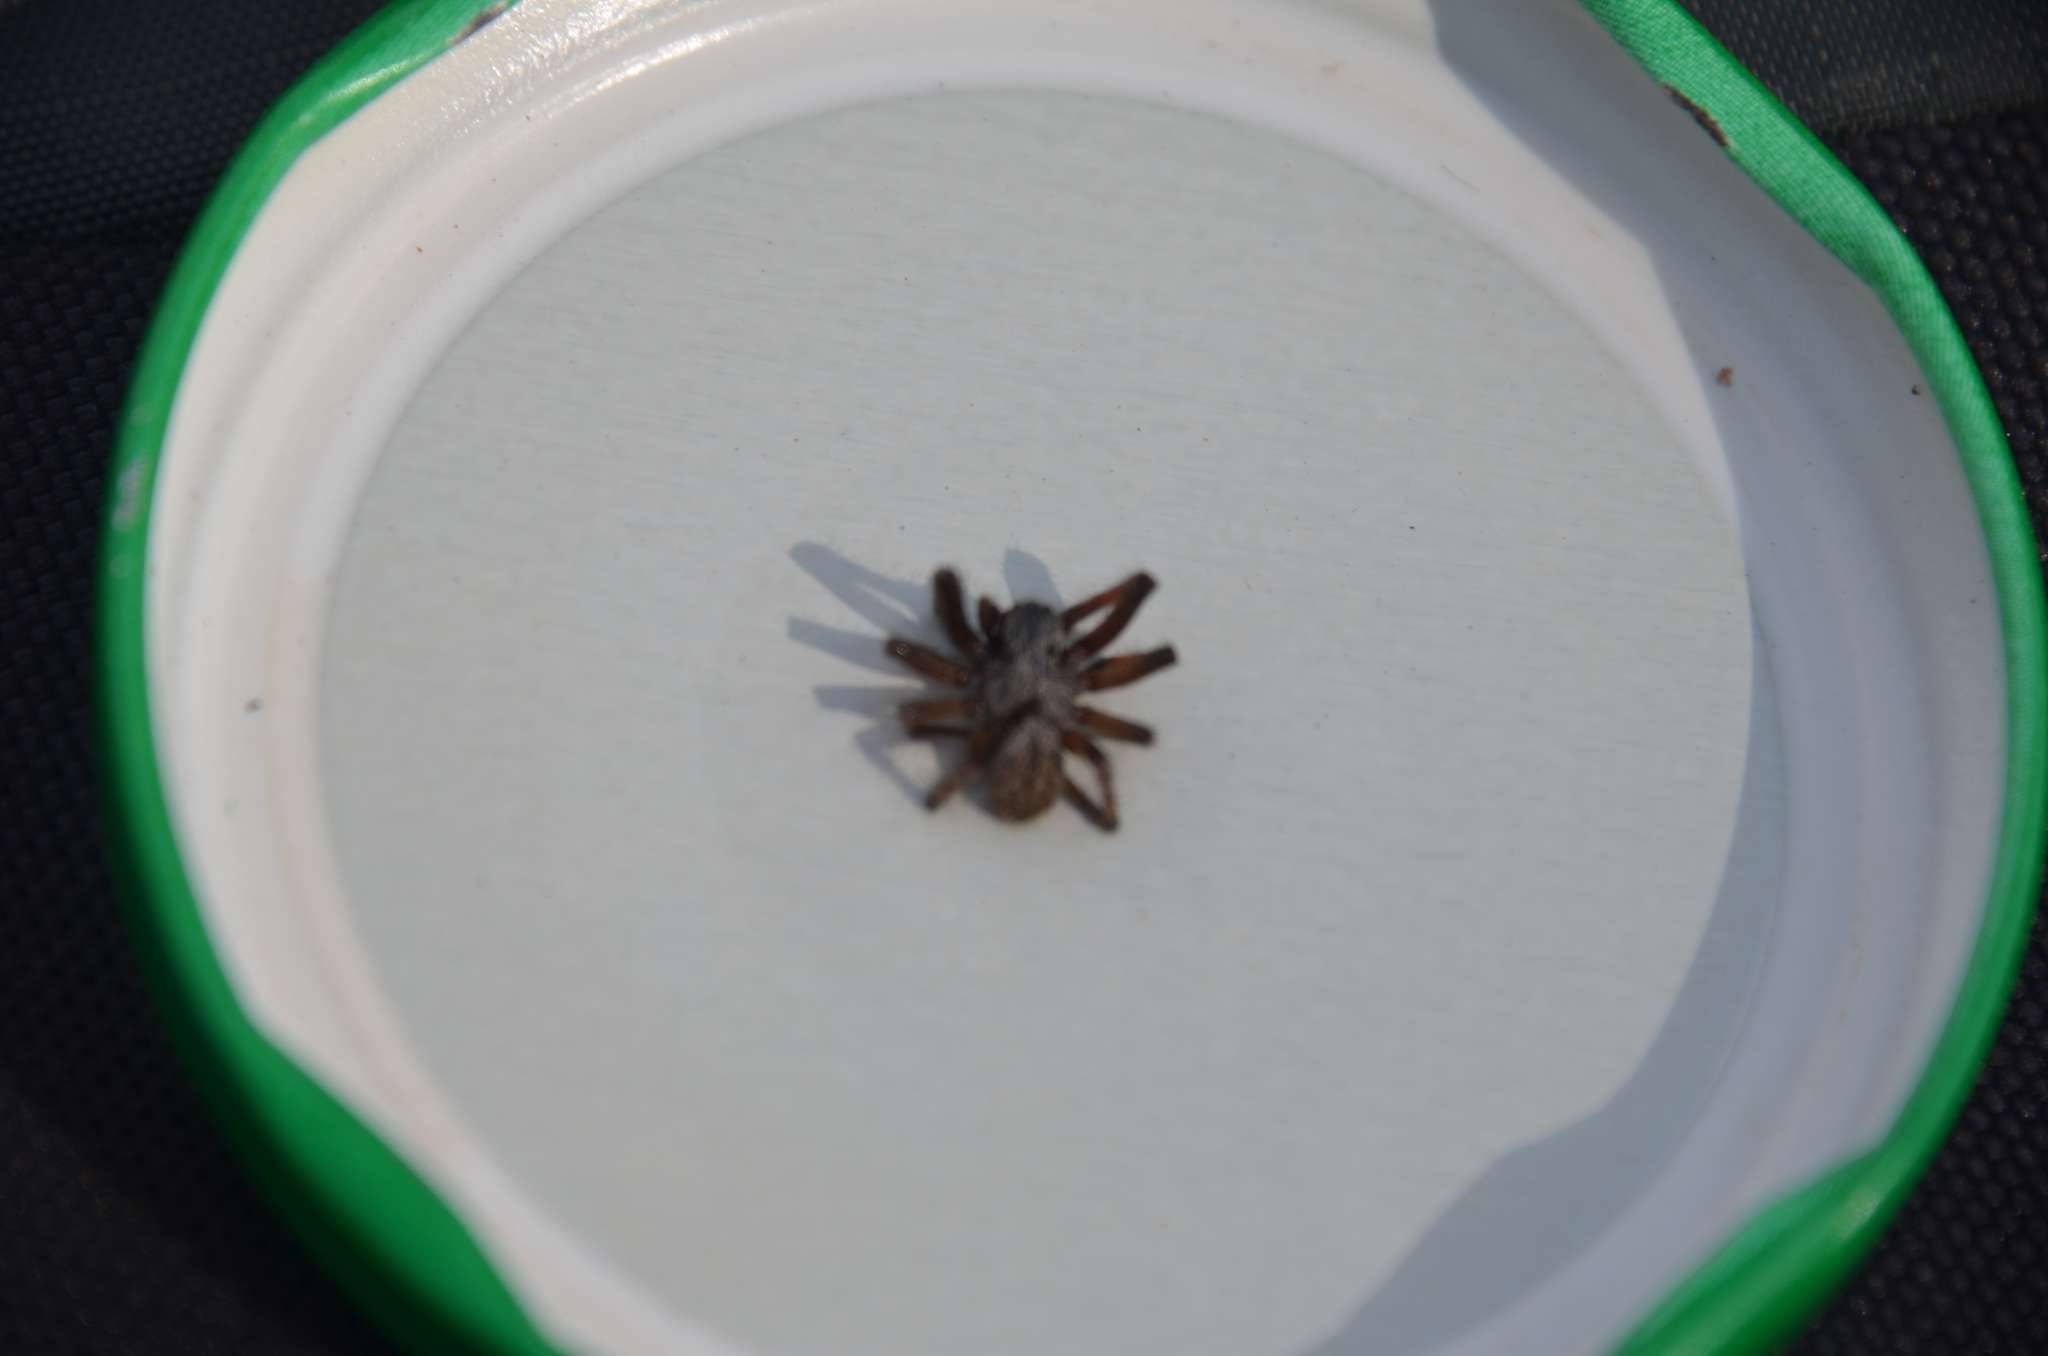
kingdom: Animalia
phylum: Arthropoda
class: Arachnida
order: Araneae
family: Desidae
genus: Badumna
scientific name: Badumna longinqua
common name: Gray house spider
